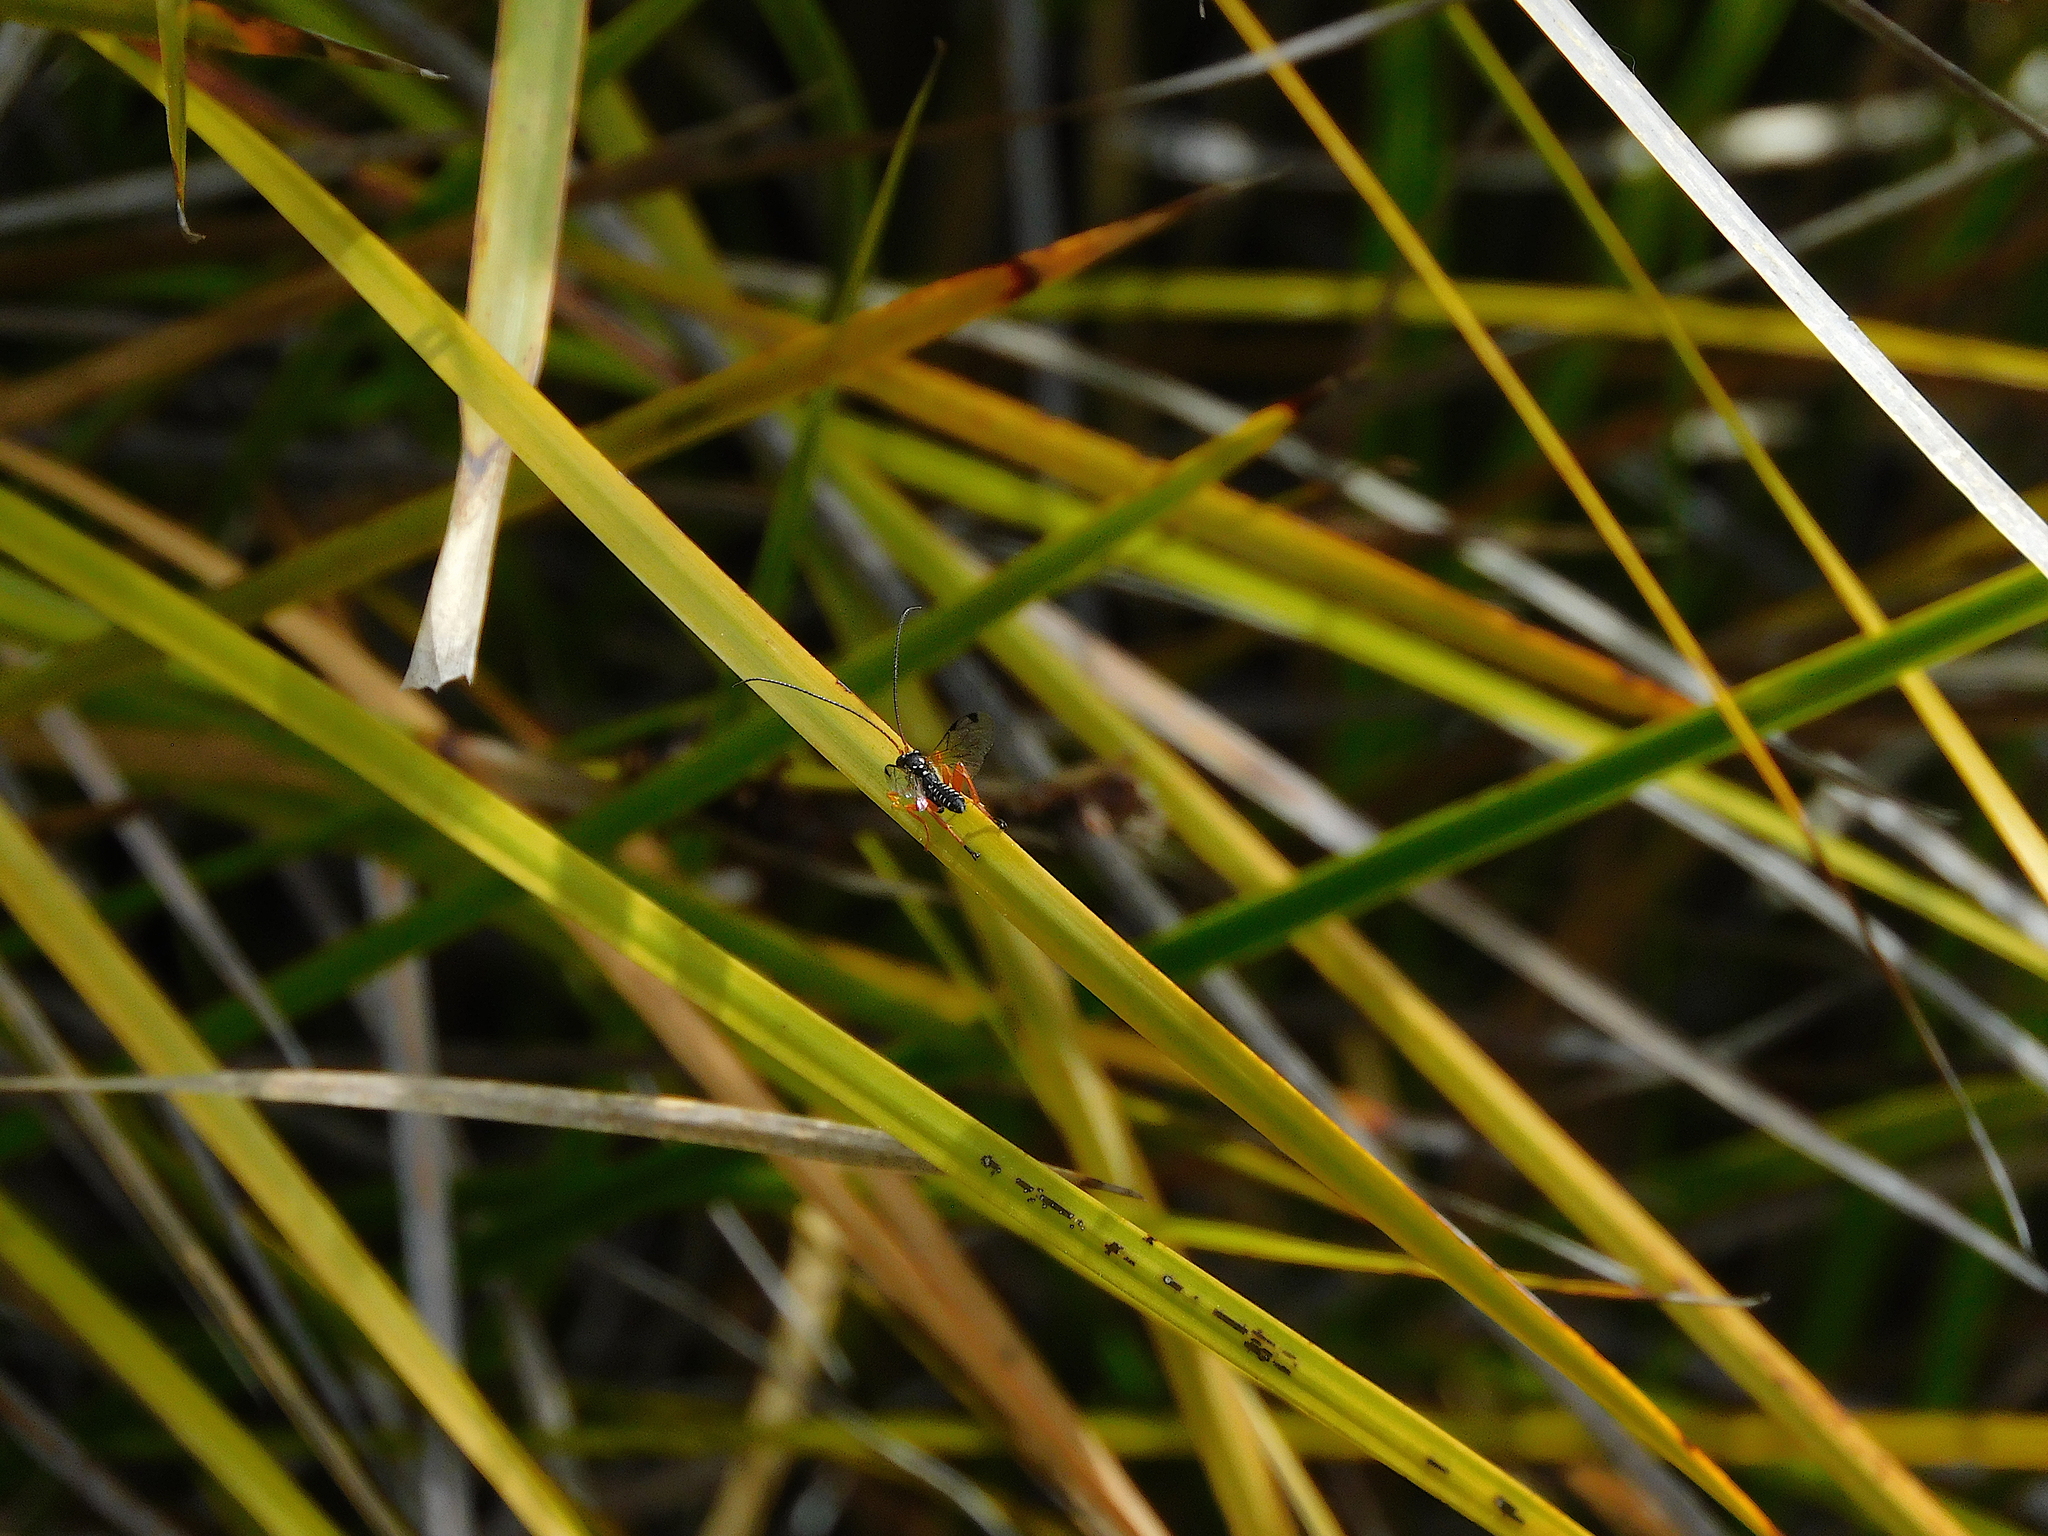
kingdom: Animalia
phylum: Arthropoda
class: Insecta
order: Hymenoptera
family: Ichneumonidae
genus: Echthromorpha
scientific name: Echthromorpha intricatoria
